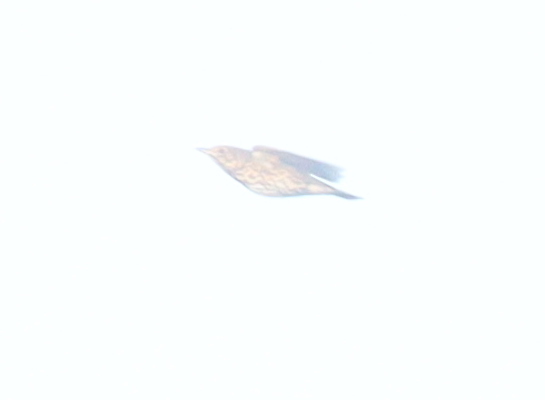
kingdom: Animalia
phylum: Chordata
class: Aves
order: Passeriformes
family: Turdidae
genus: Turdus
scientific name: Turdus philomelos
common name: Song thrush
